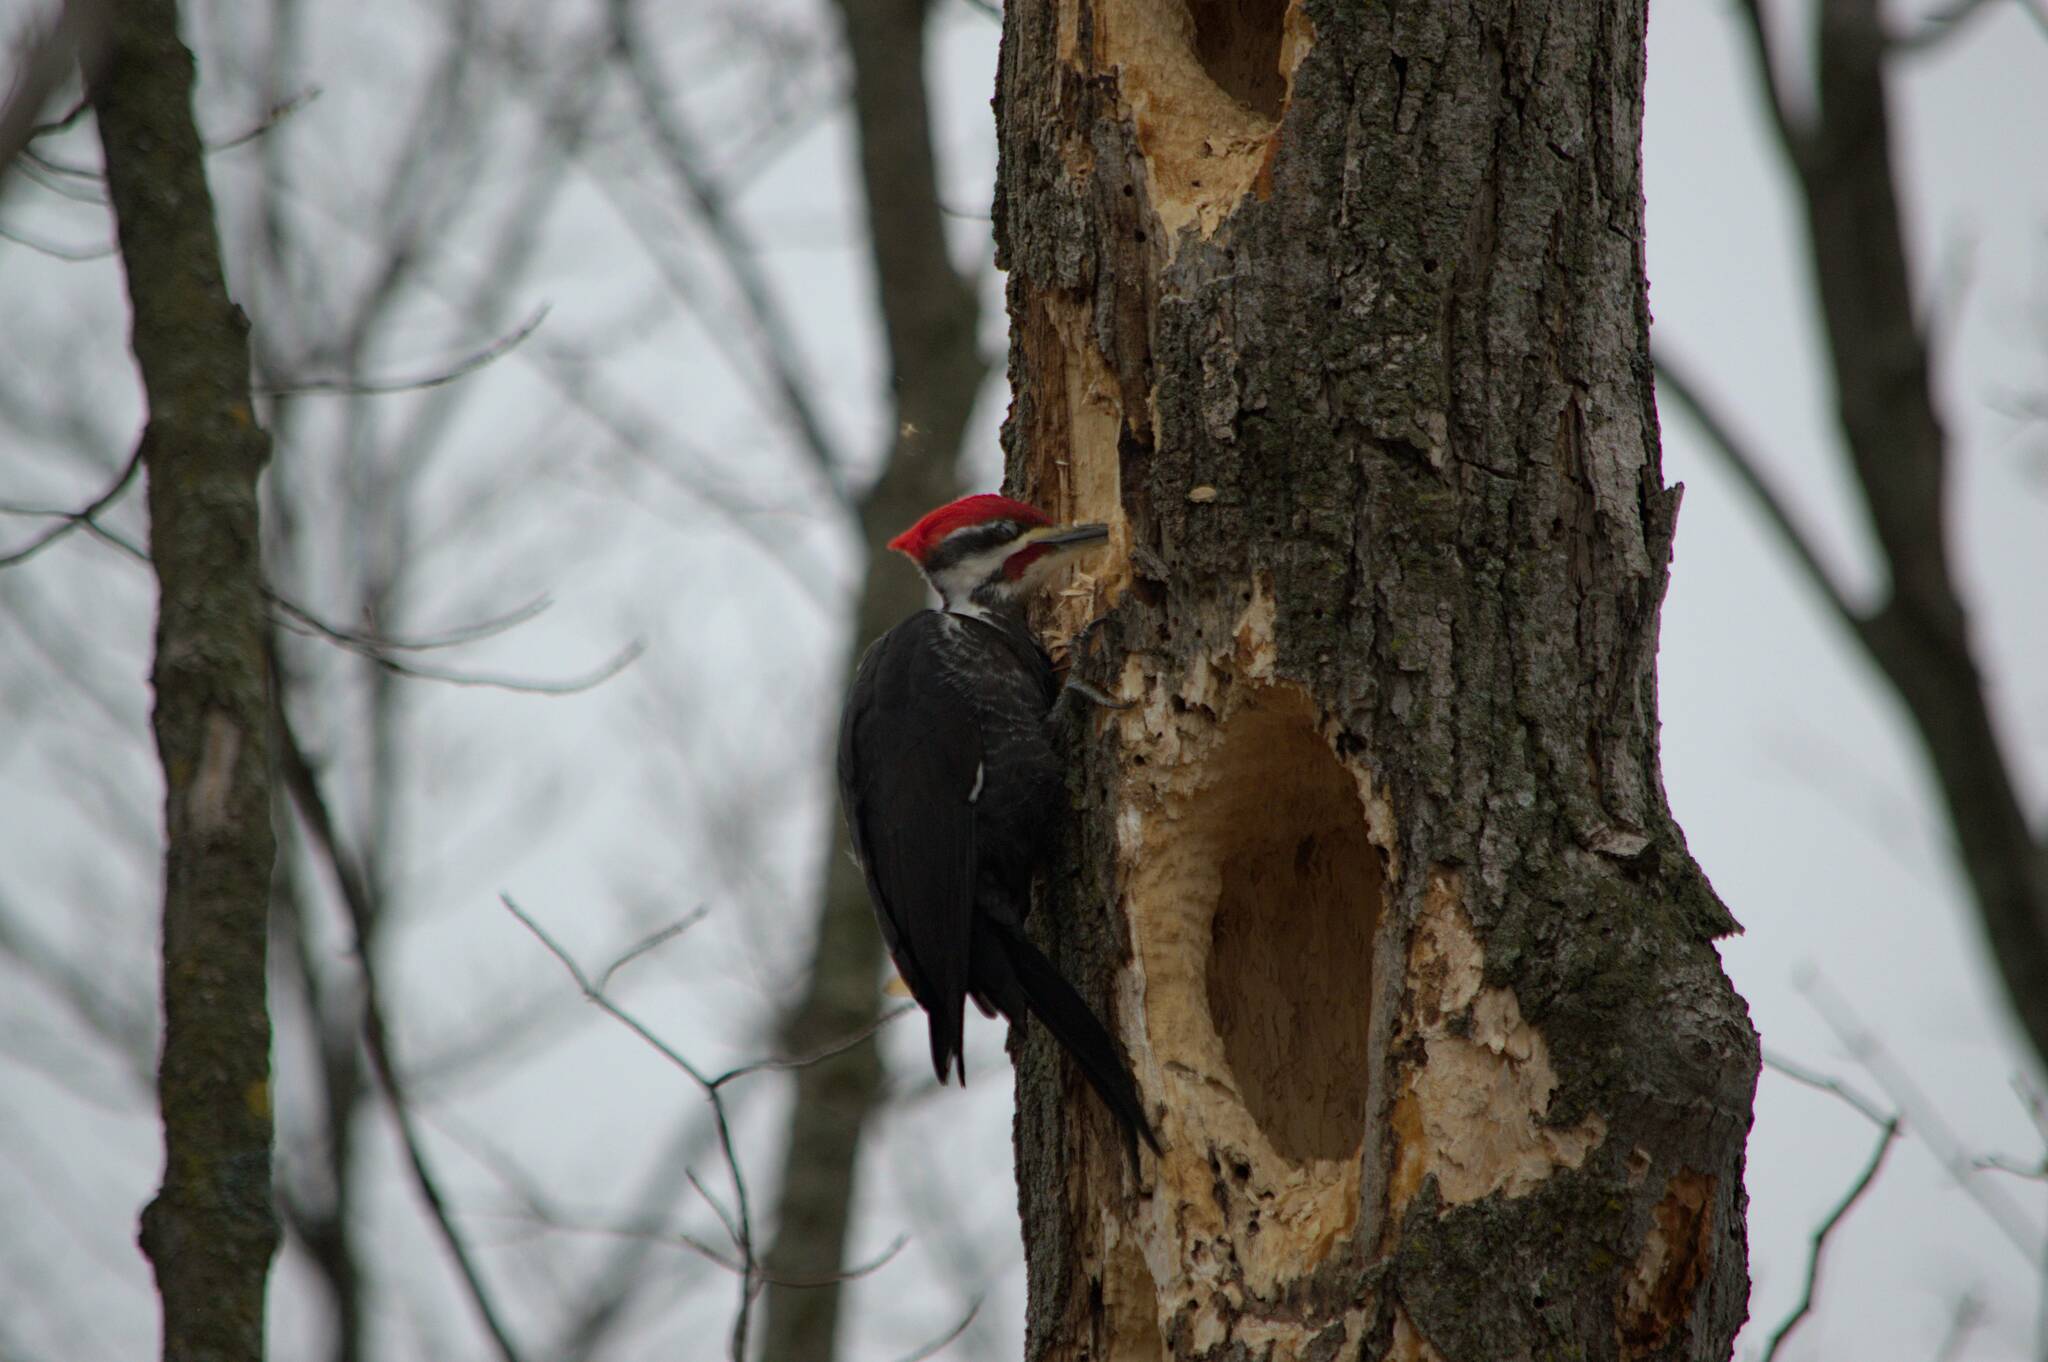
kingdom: Animalia
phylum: Chordata
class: Aves
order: Piciformes
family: Picidae
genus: Dryocopus
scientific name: Dryocopus pileatus
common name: Pileated woodpecker
